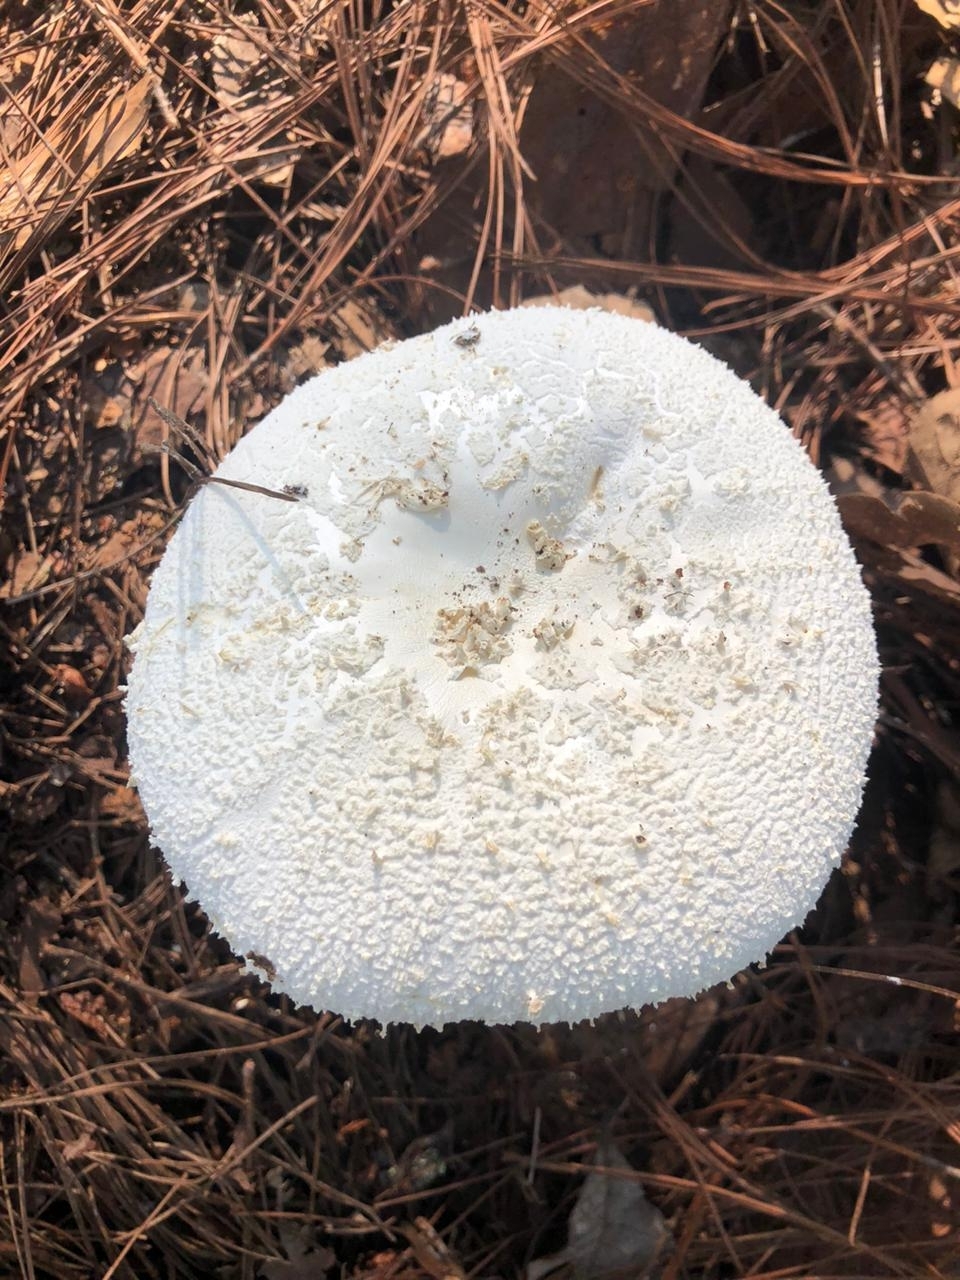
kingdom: Fungi
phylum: Basidiomycota
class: Agaricomycetes
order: Agaricales
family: Amanitaceae
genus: Amanita
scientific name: Amanita polypyramis
